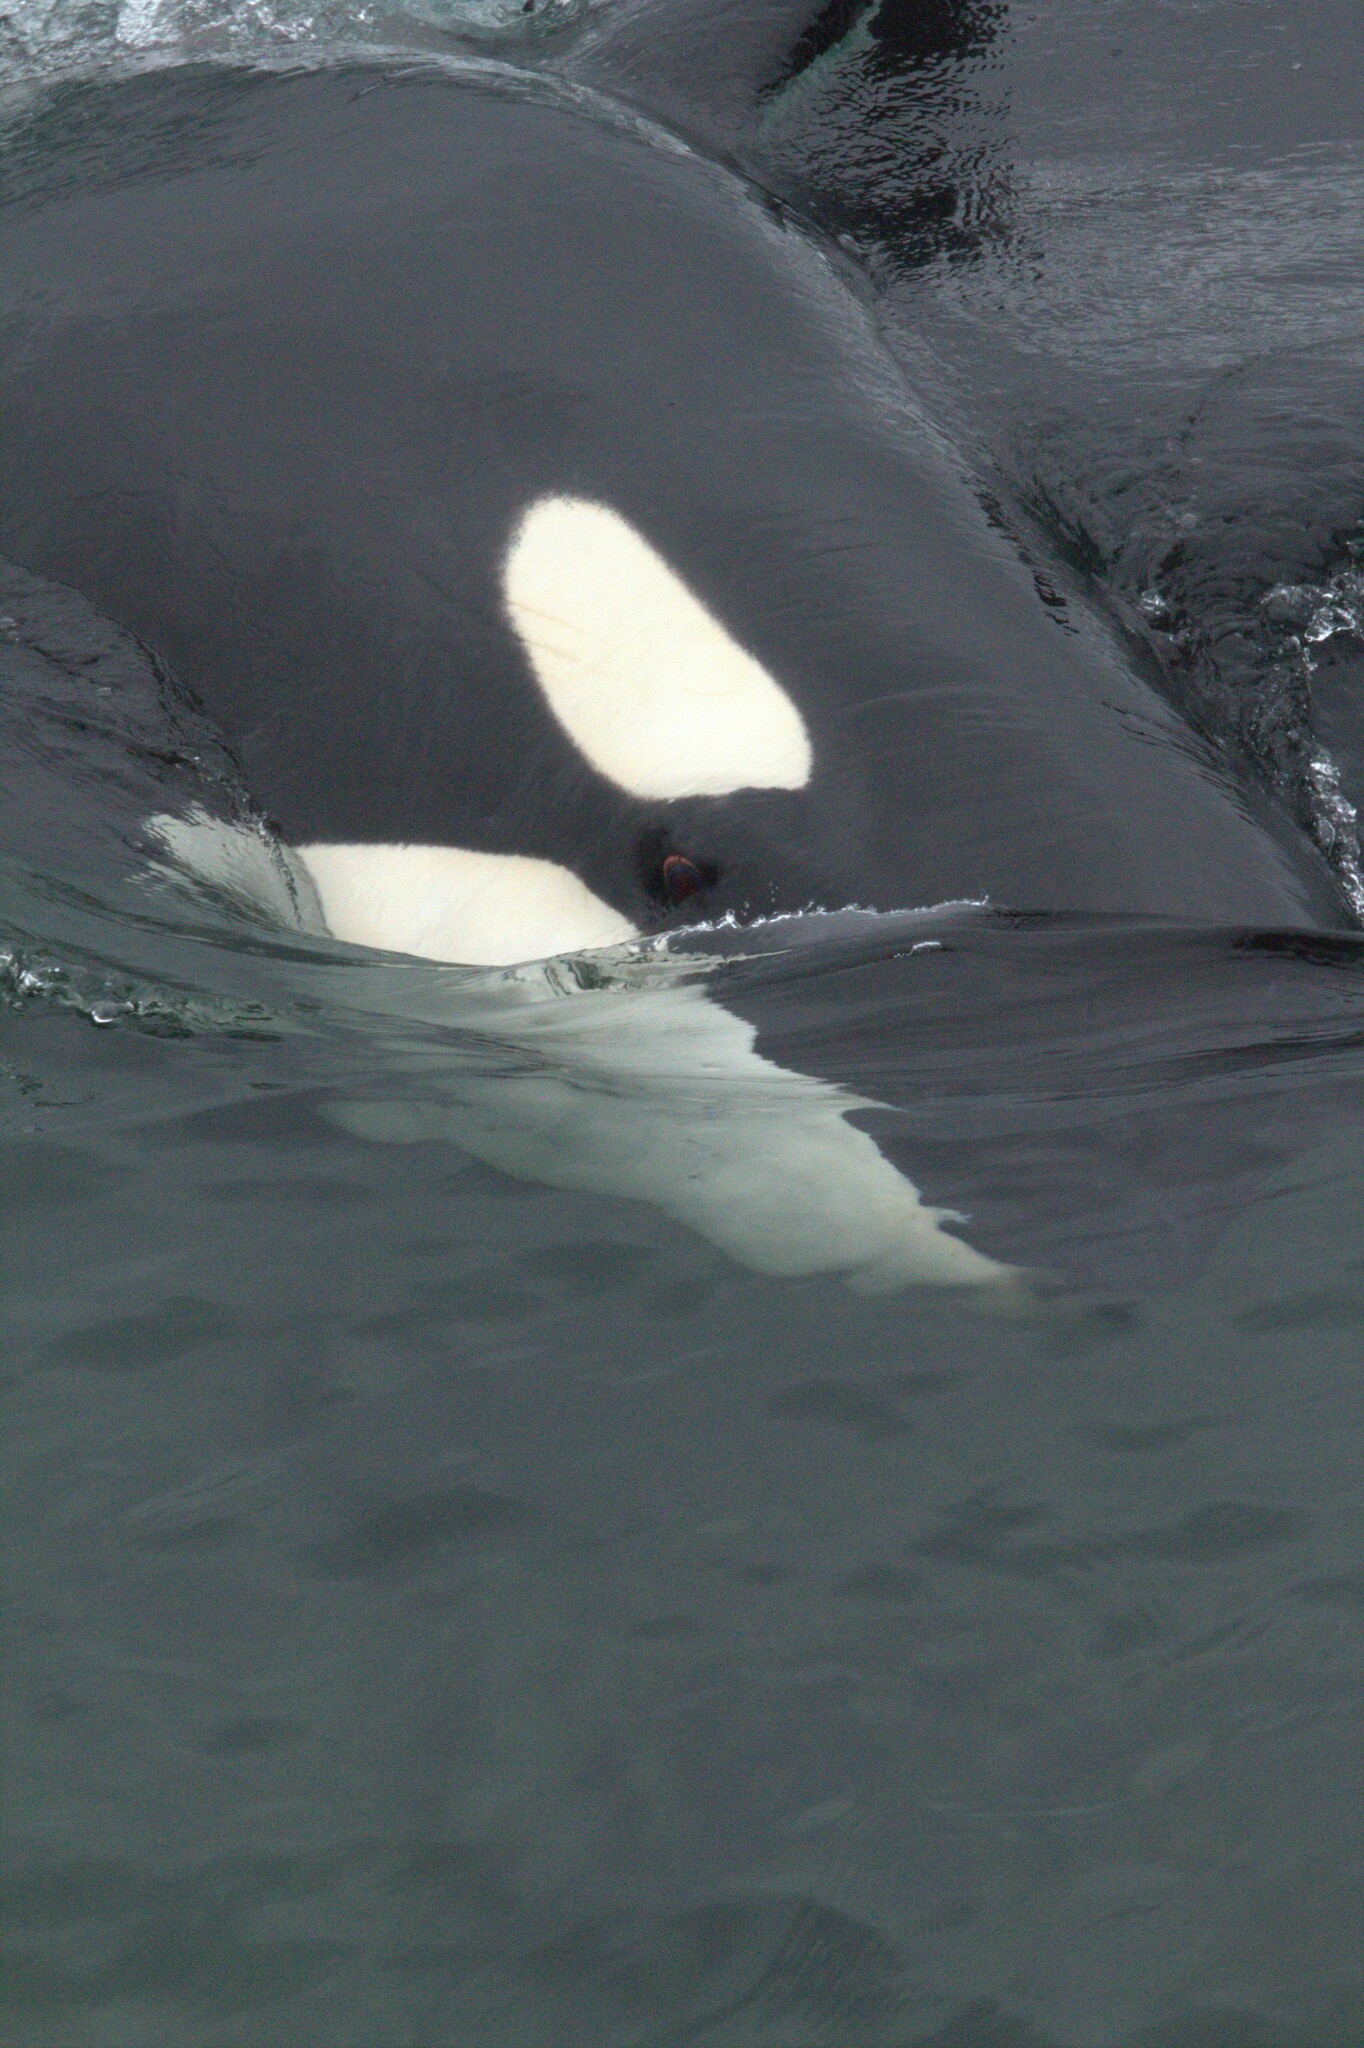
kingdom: Animalia
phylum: Chordata
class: Mammalia
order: Cetacea
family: Delphinidae
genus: Orcinus
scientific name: Orcinus orca
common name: Killer whale
